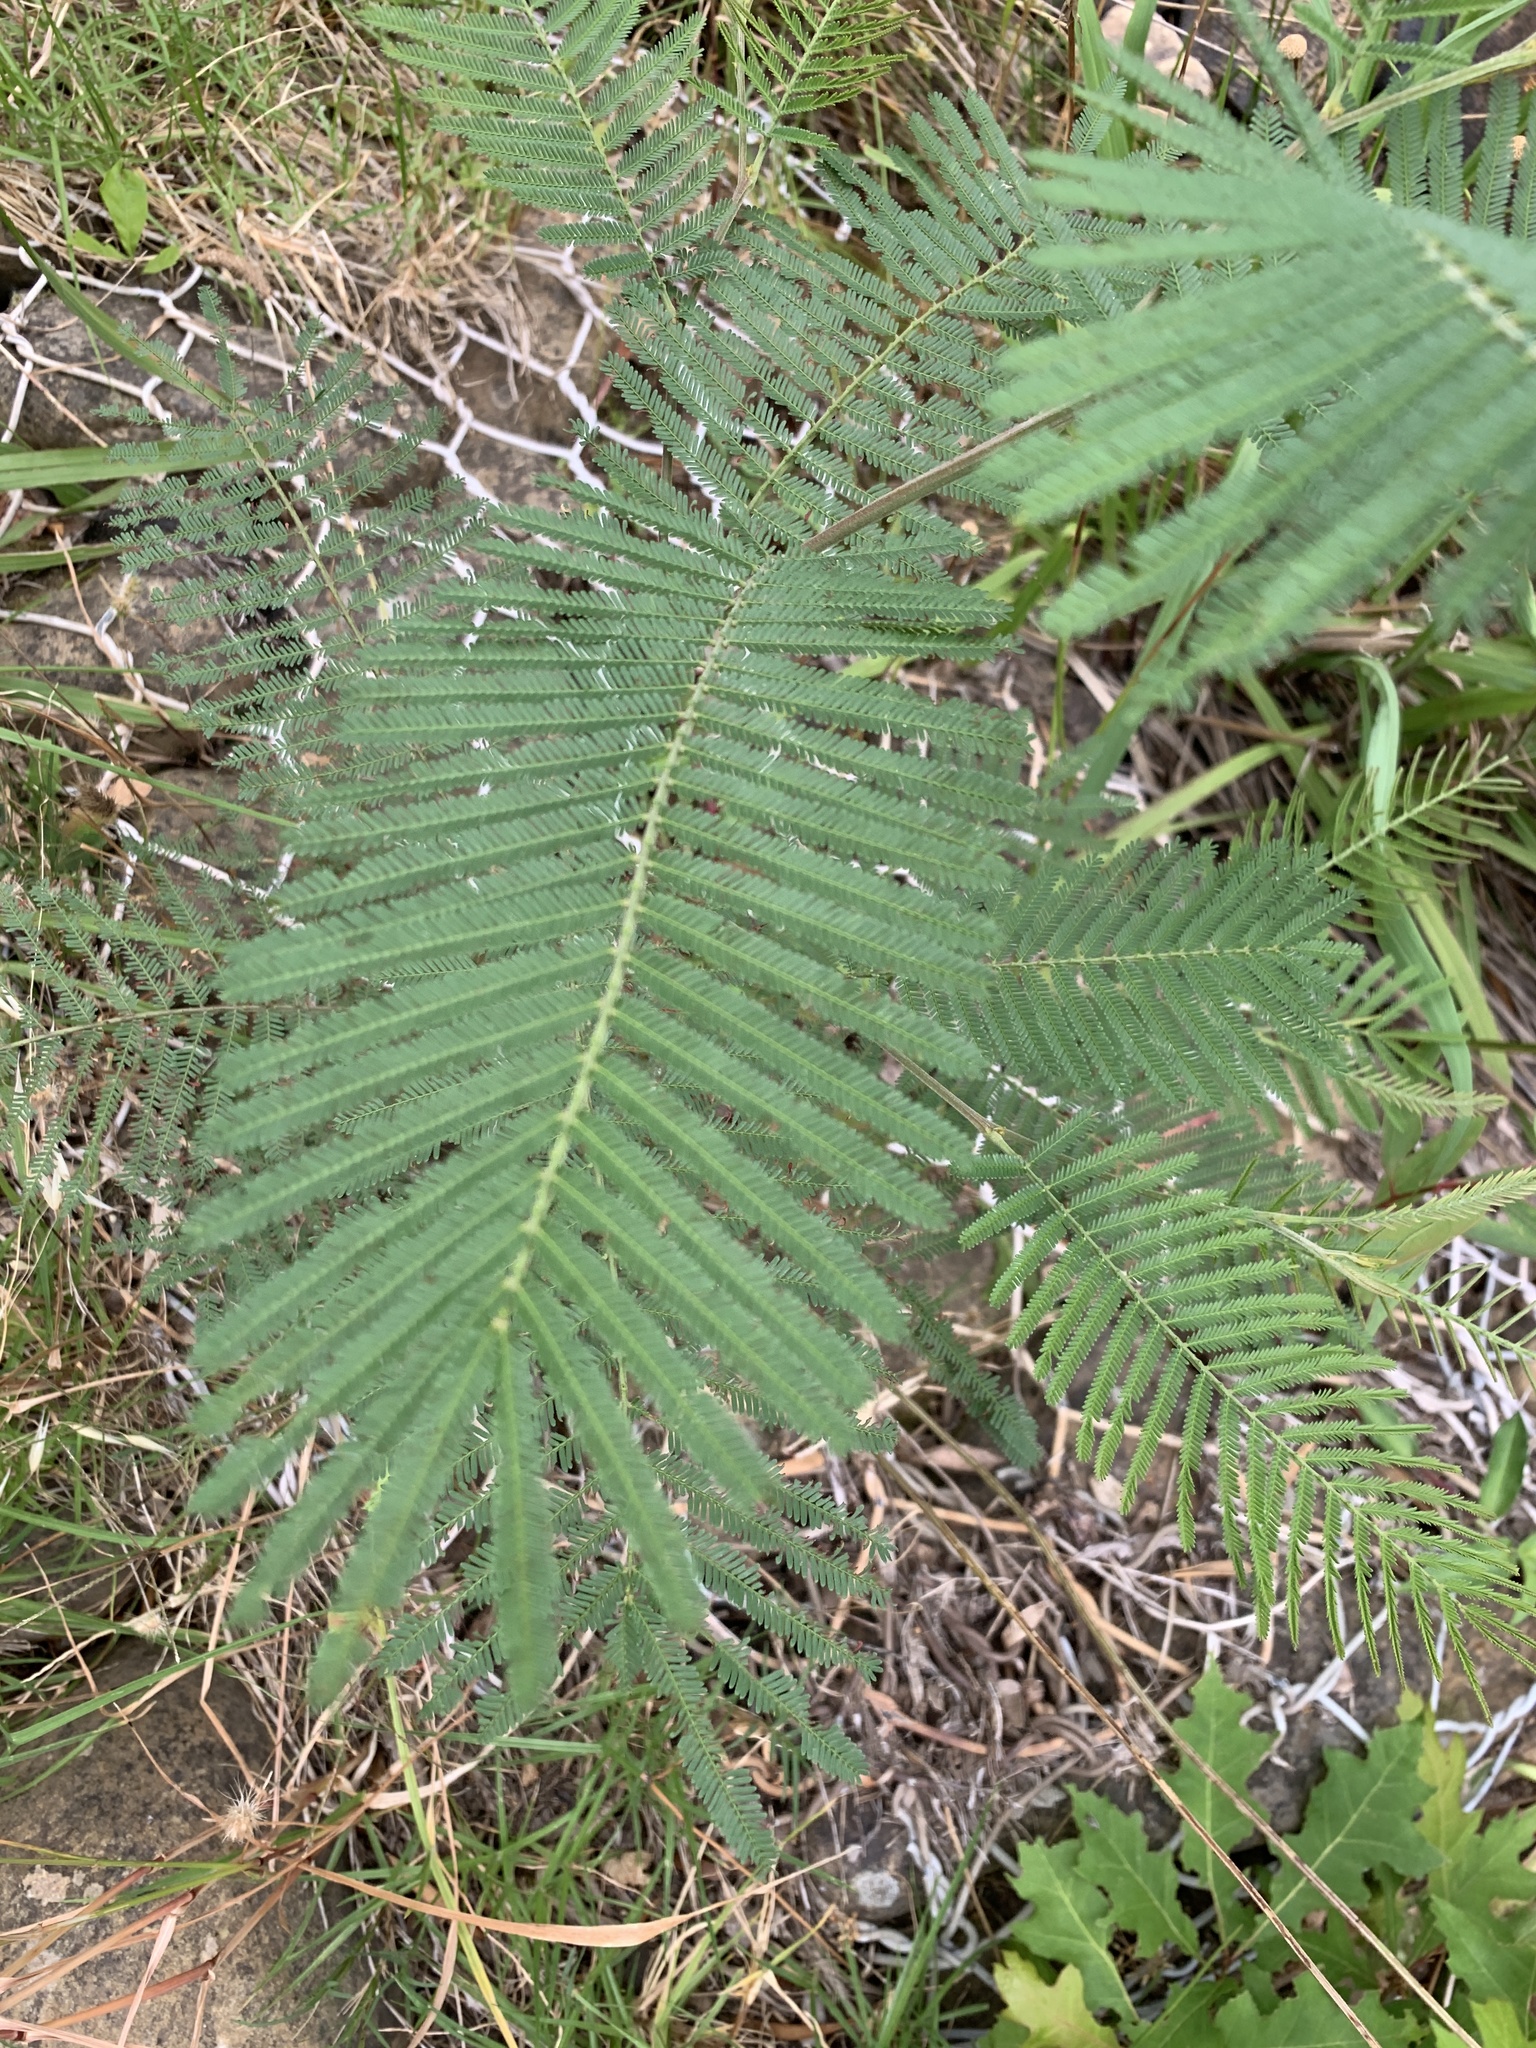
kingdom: Plantae
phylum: Tracheophyta
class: Magnoliopsida
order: Fabales
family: Fabaceae
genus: Acacia
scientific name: Acacia mearnsii
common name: Black wattle
